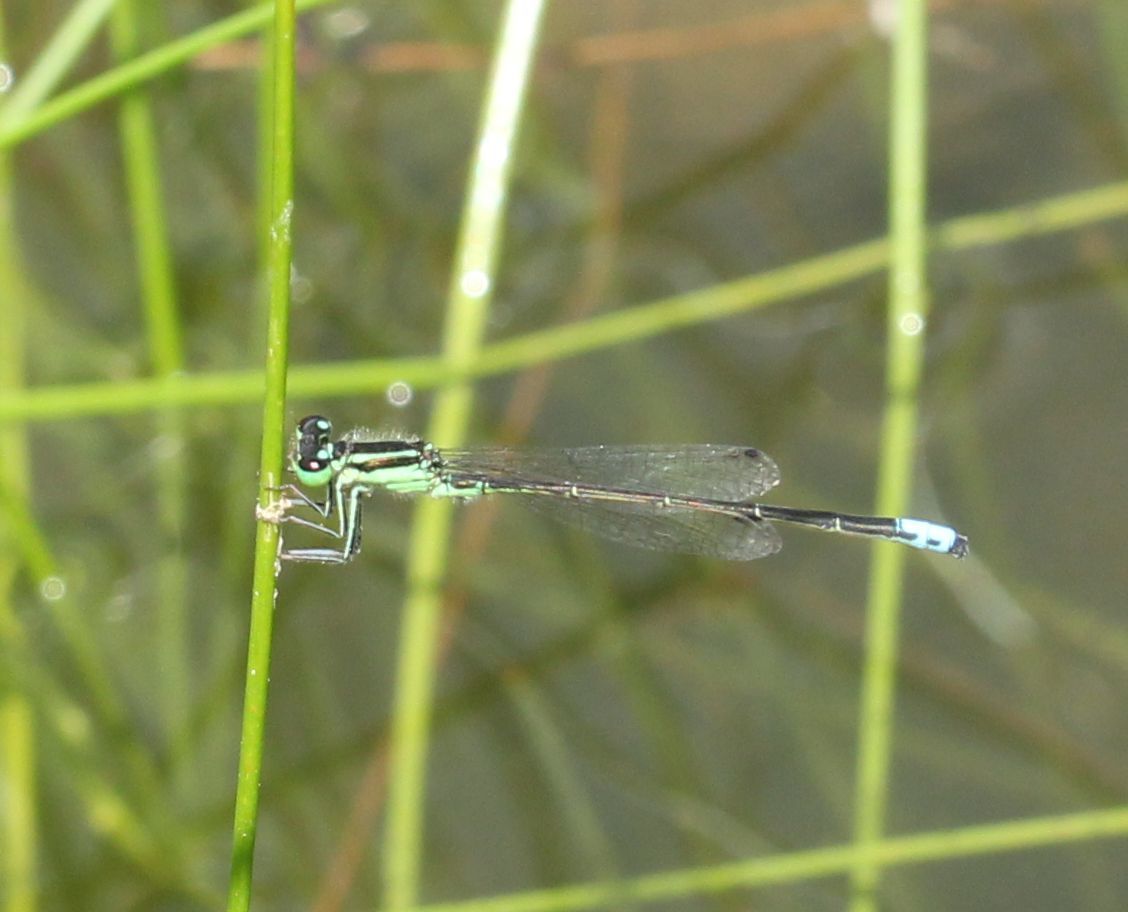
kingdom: Animalia
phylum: Arthropoda
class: Insecta
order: Odonata
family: Coenagrionidae
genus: Ischnura
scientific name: Ischnura verticalis
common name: Eastern forktail
